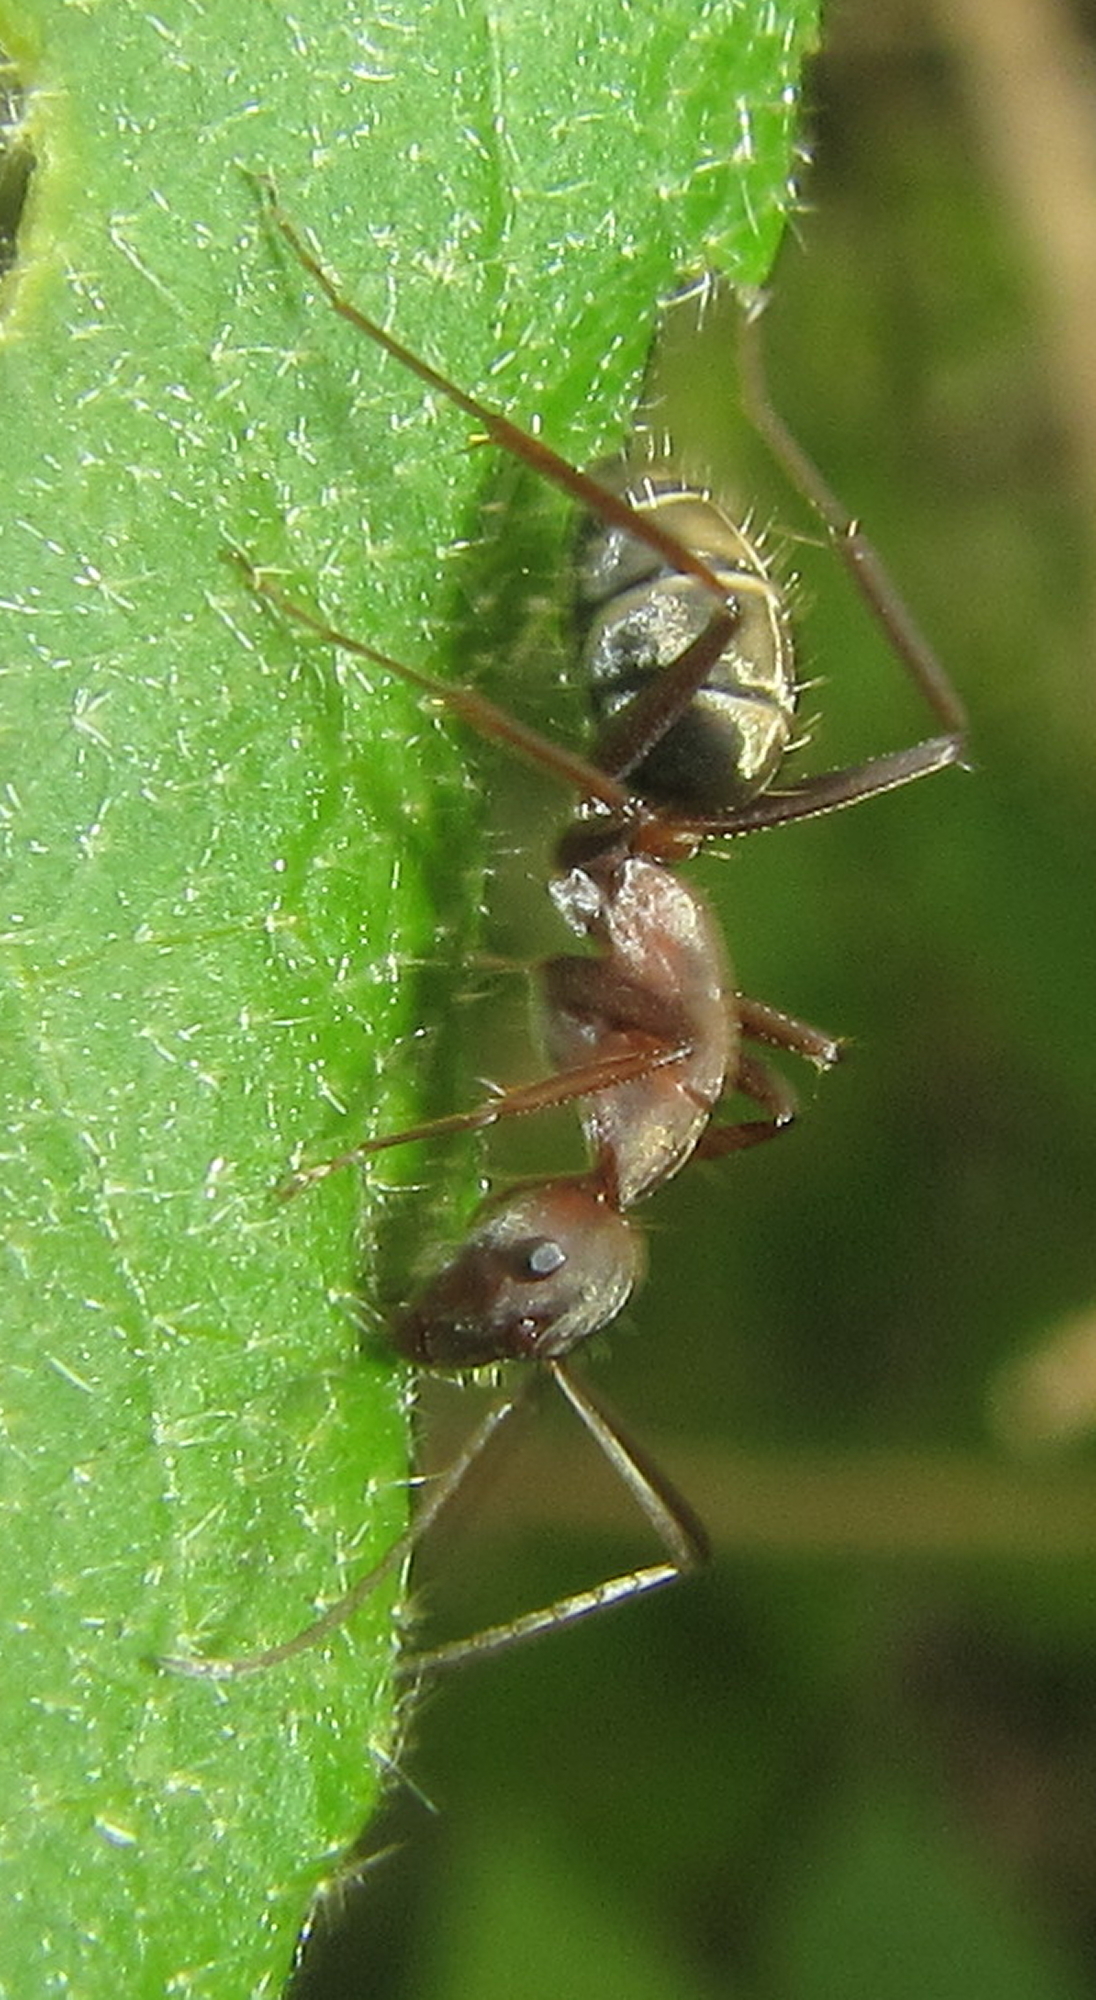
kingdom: Animalia
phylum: Arthropoda
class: Insecta
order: Hymenoptera
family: Formicidae
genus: Camponotus
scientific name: Camponotus vestitus
